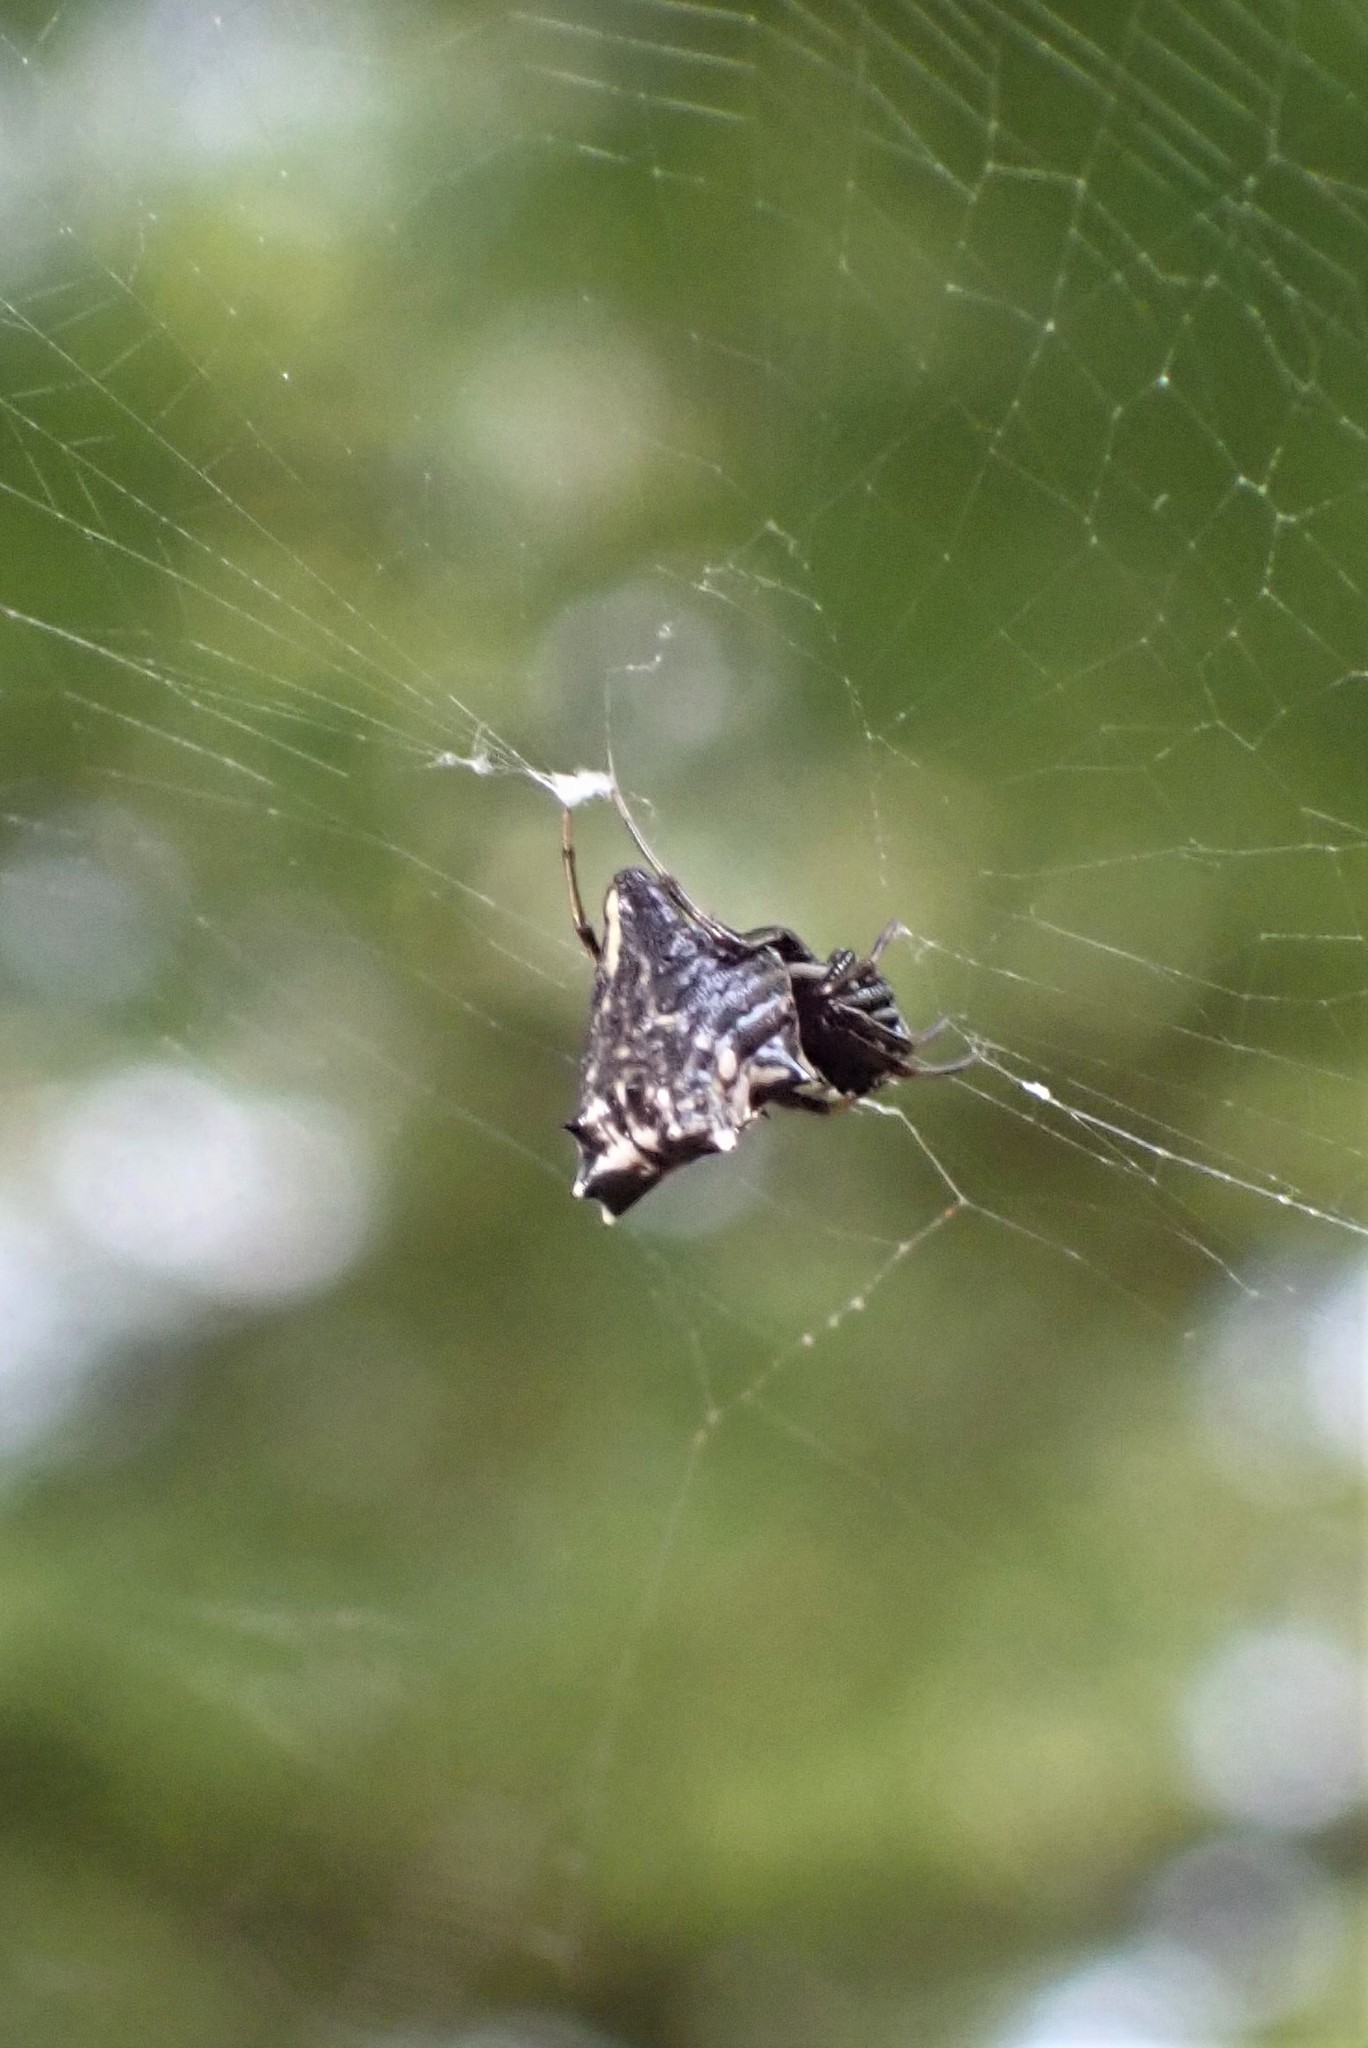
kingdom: Animalia
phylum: Arthropoda
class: Arachnida
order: Araneae
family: Araneidae
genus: Micrathena
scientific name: Micrathena gracilis
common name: Orb weavers
